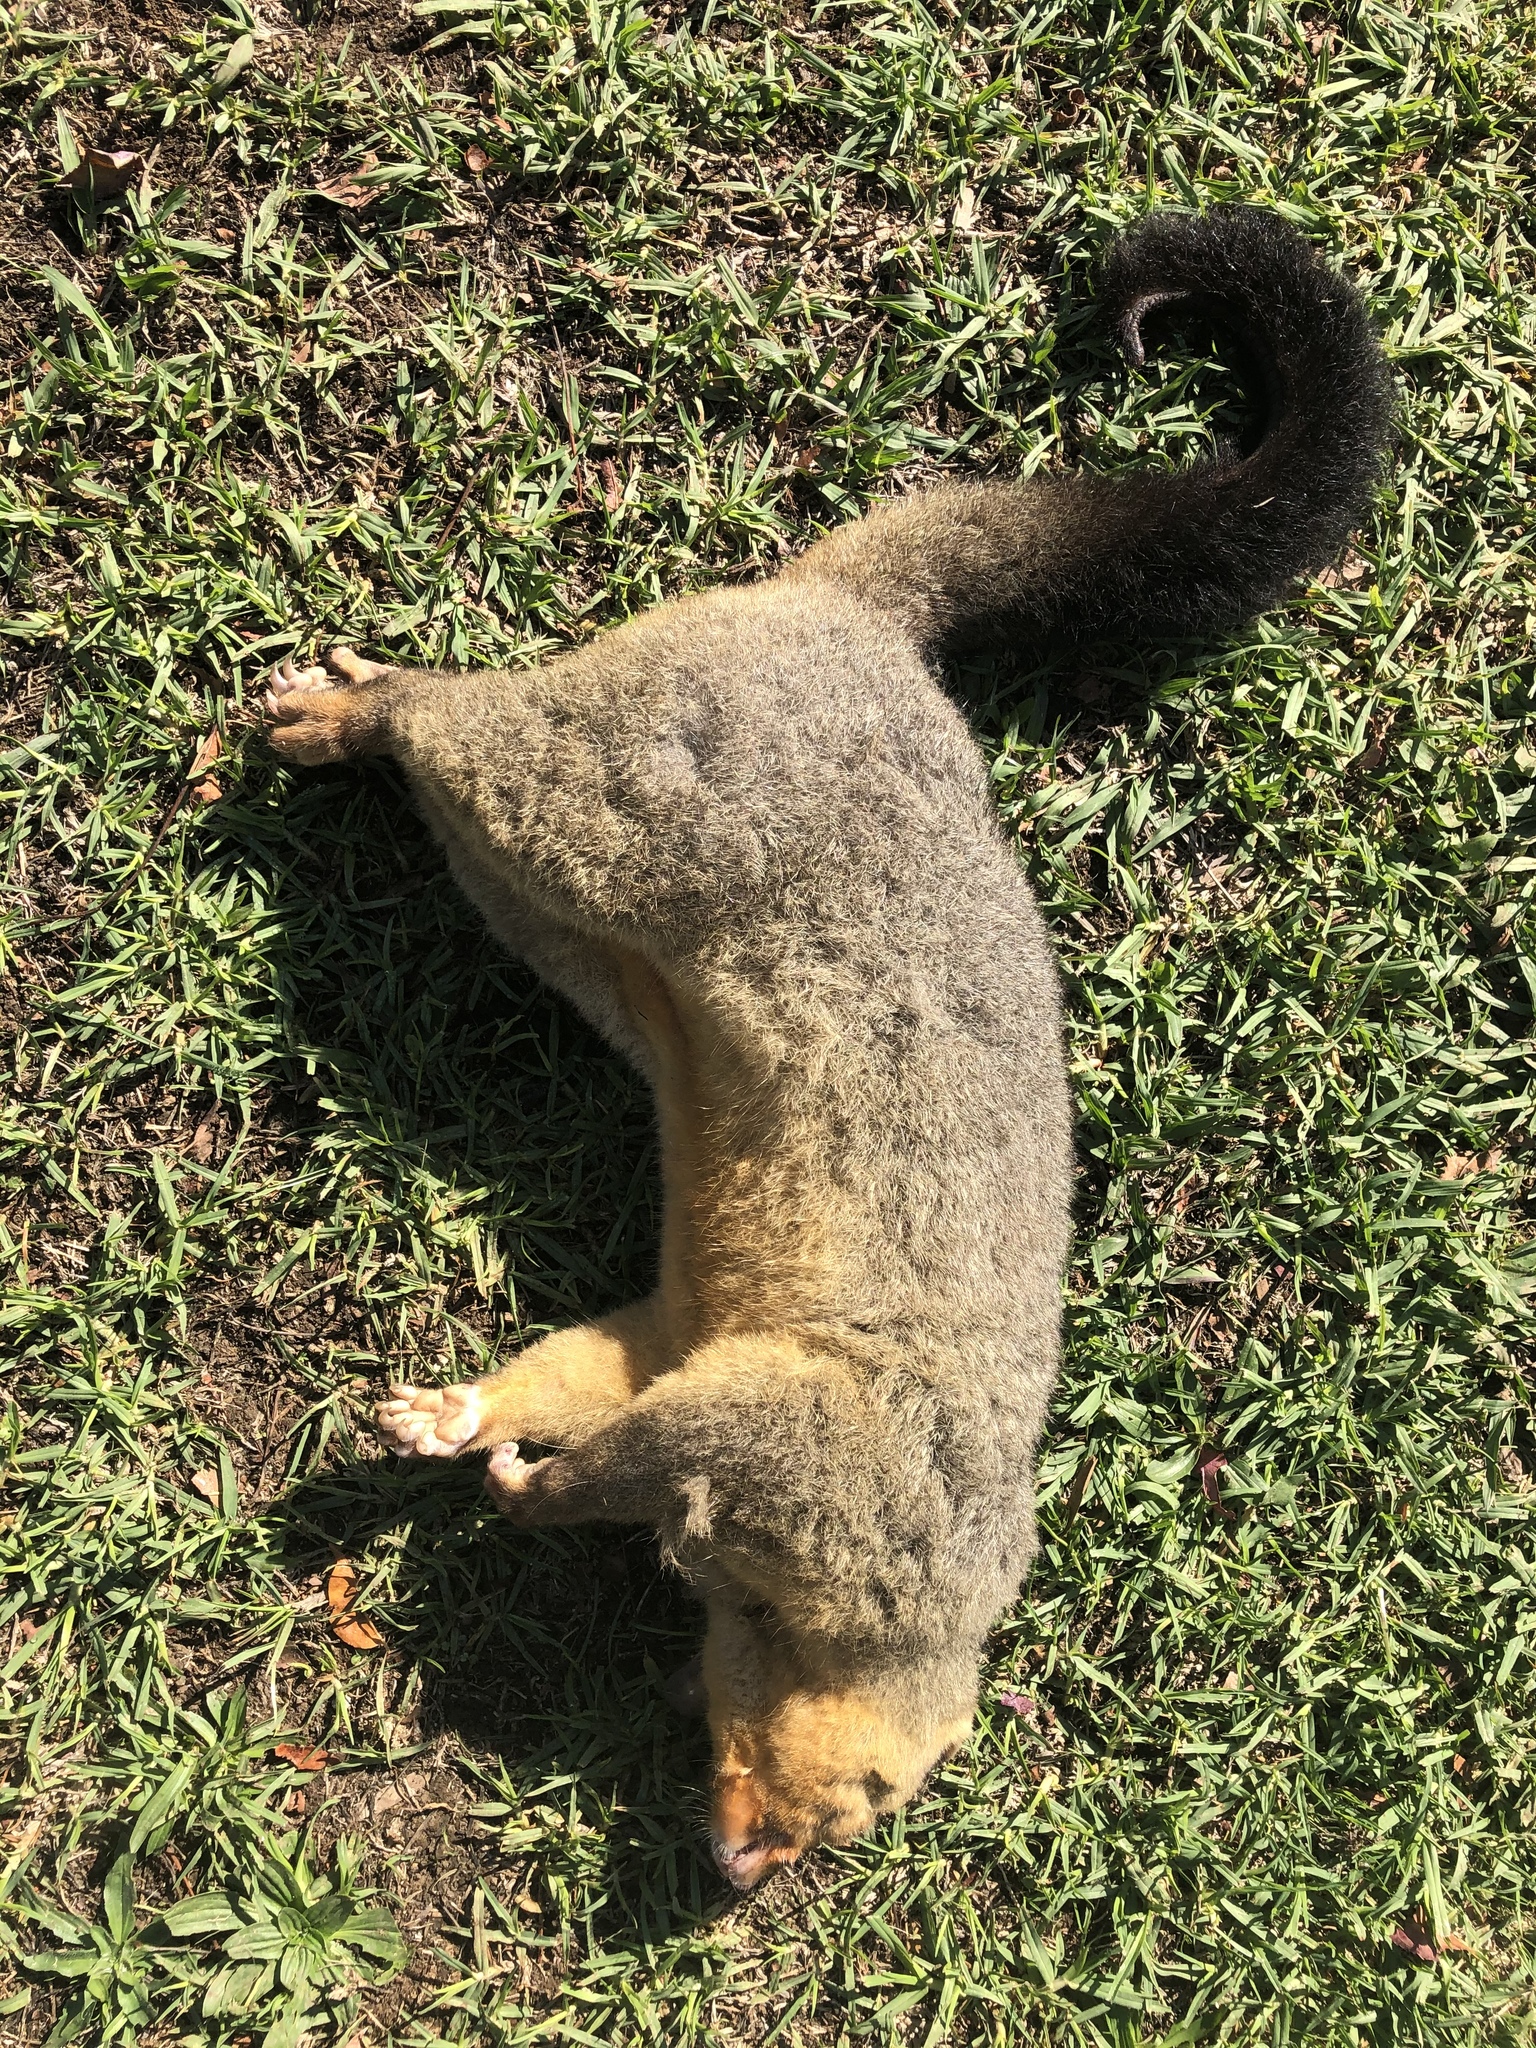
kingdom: Animalia
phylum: Chordata
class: Mammalia
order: Diprotodontia
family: Phalangeridae
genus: Trichosurus
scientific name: Trichosurus vulpecula
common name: Common brushtail
